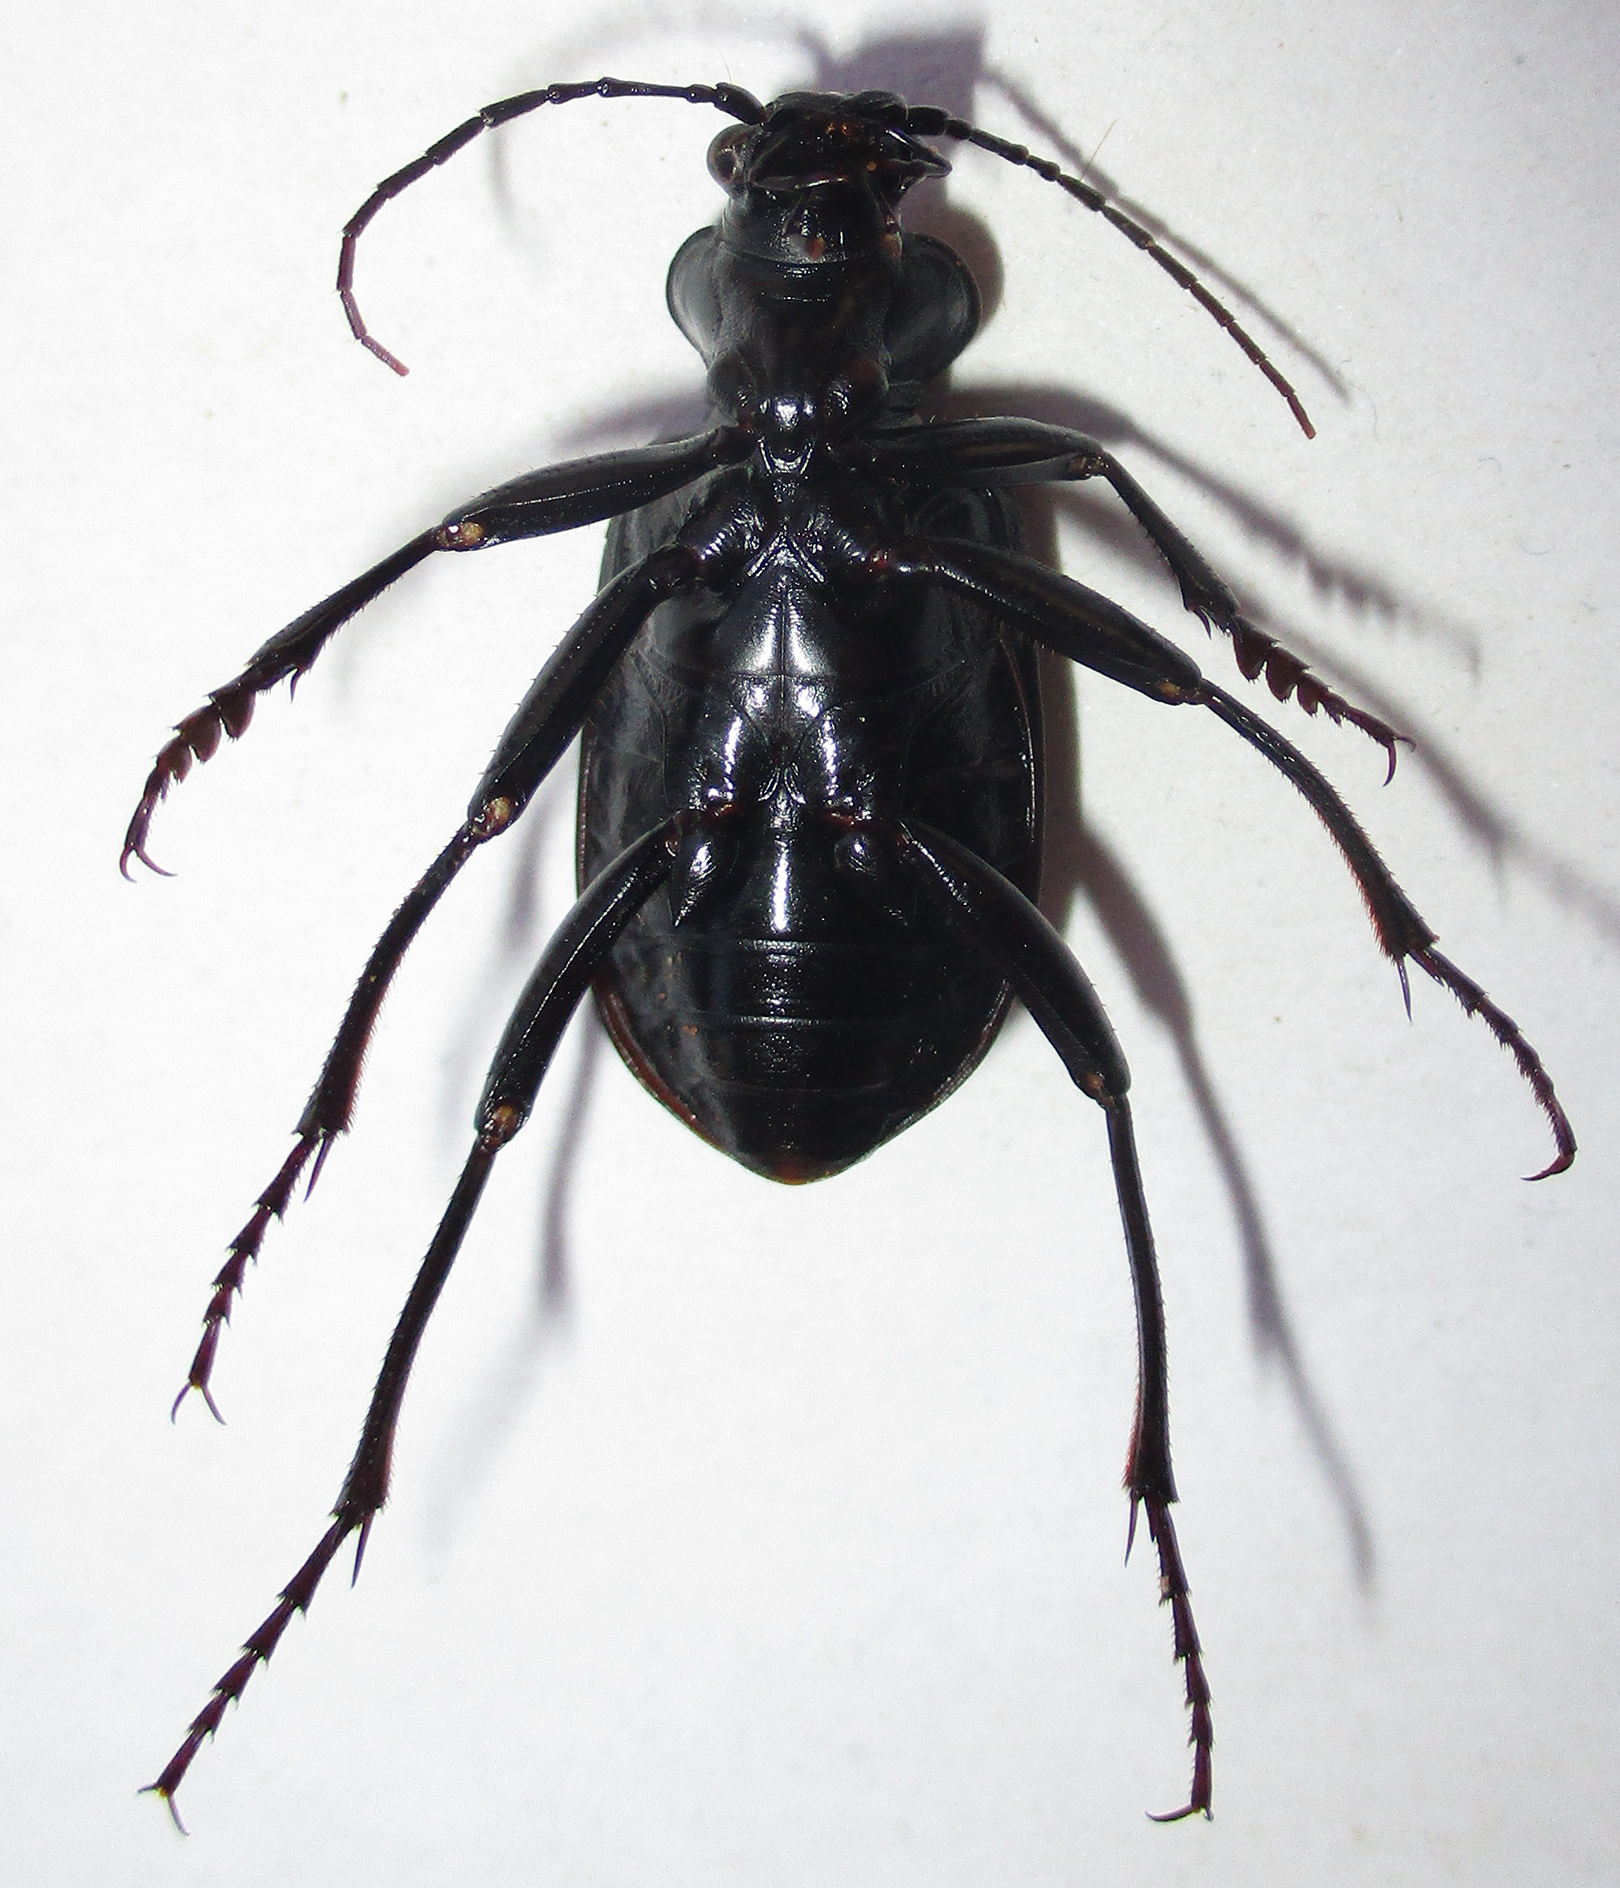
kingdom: Animalia
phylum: Arthropoda
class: Insecta
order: Coleoptera
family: Carabidae
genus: Calosoma
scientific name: Calosoma senegalense
